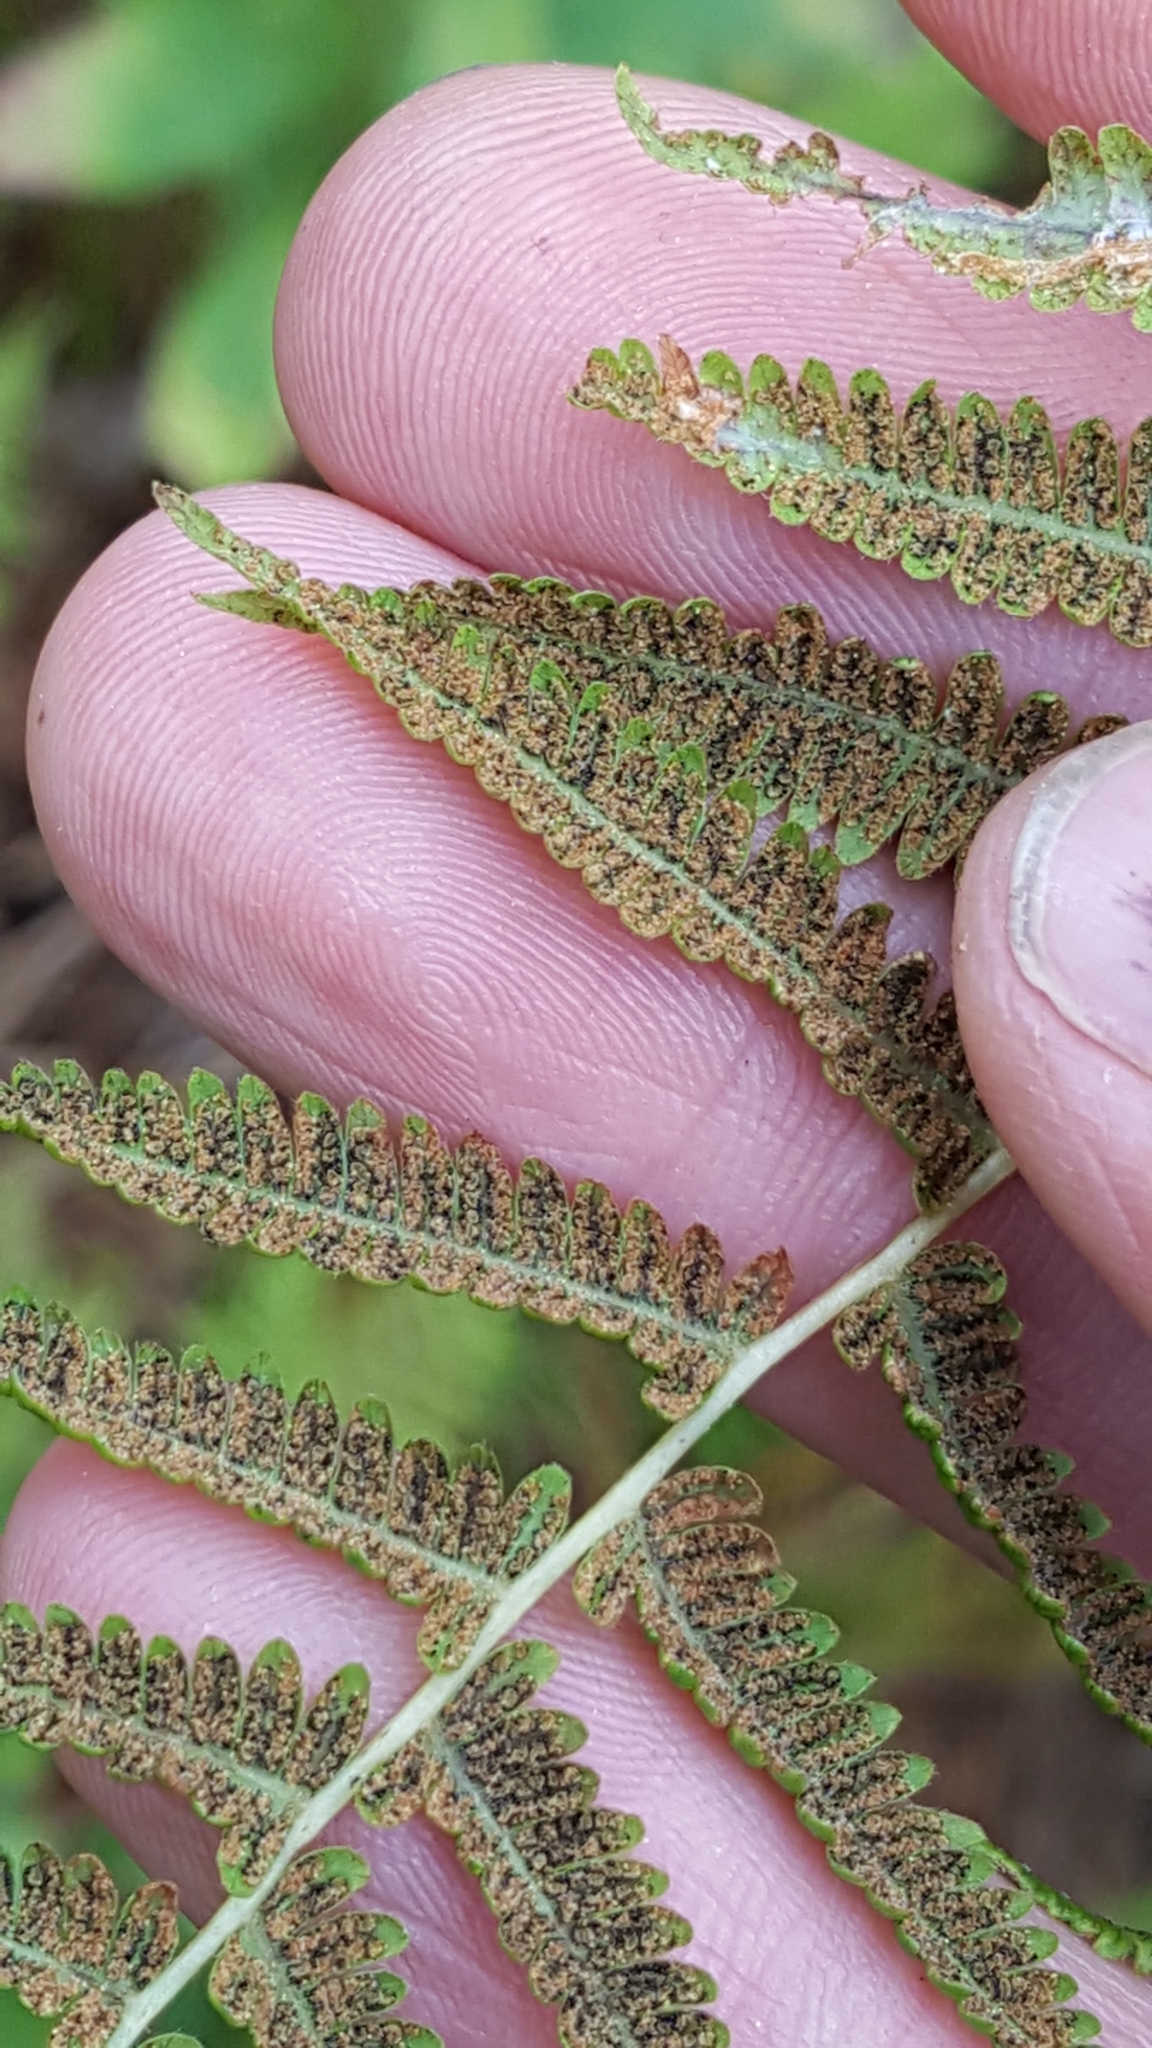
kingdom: Plantae
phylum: Tracheophyta
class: Polypodiopsida
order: Polypodiales
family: Thelypteridaceae
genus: Amauropelta
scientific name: Amauropelta noveboracensis
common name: New york fern
